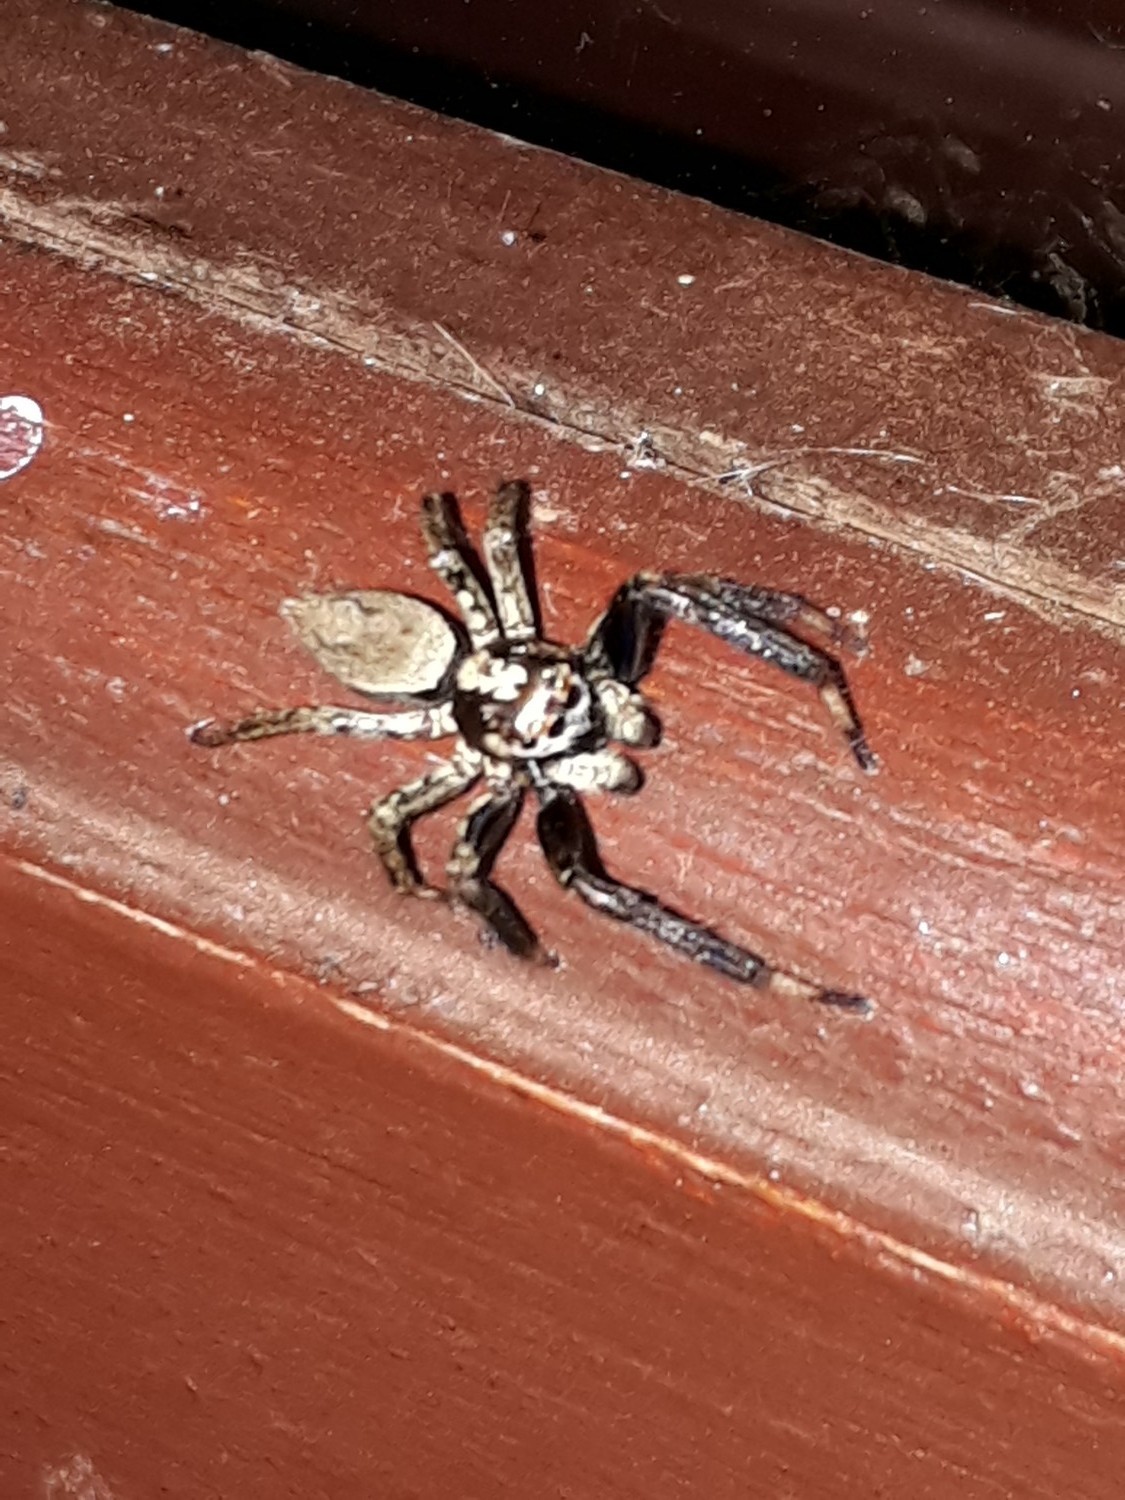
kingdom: Animalia
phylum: Arthropoda
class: Arachnida
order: Araneae
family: Salticidae
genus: Asaphobelis
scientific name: Asaphobelis physonychus
